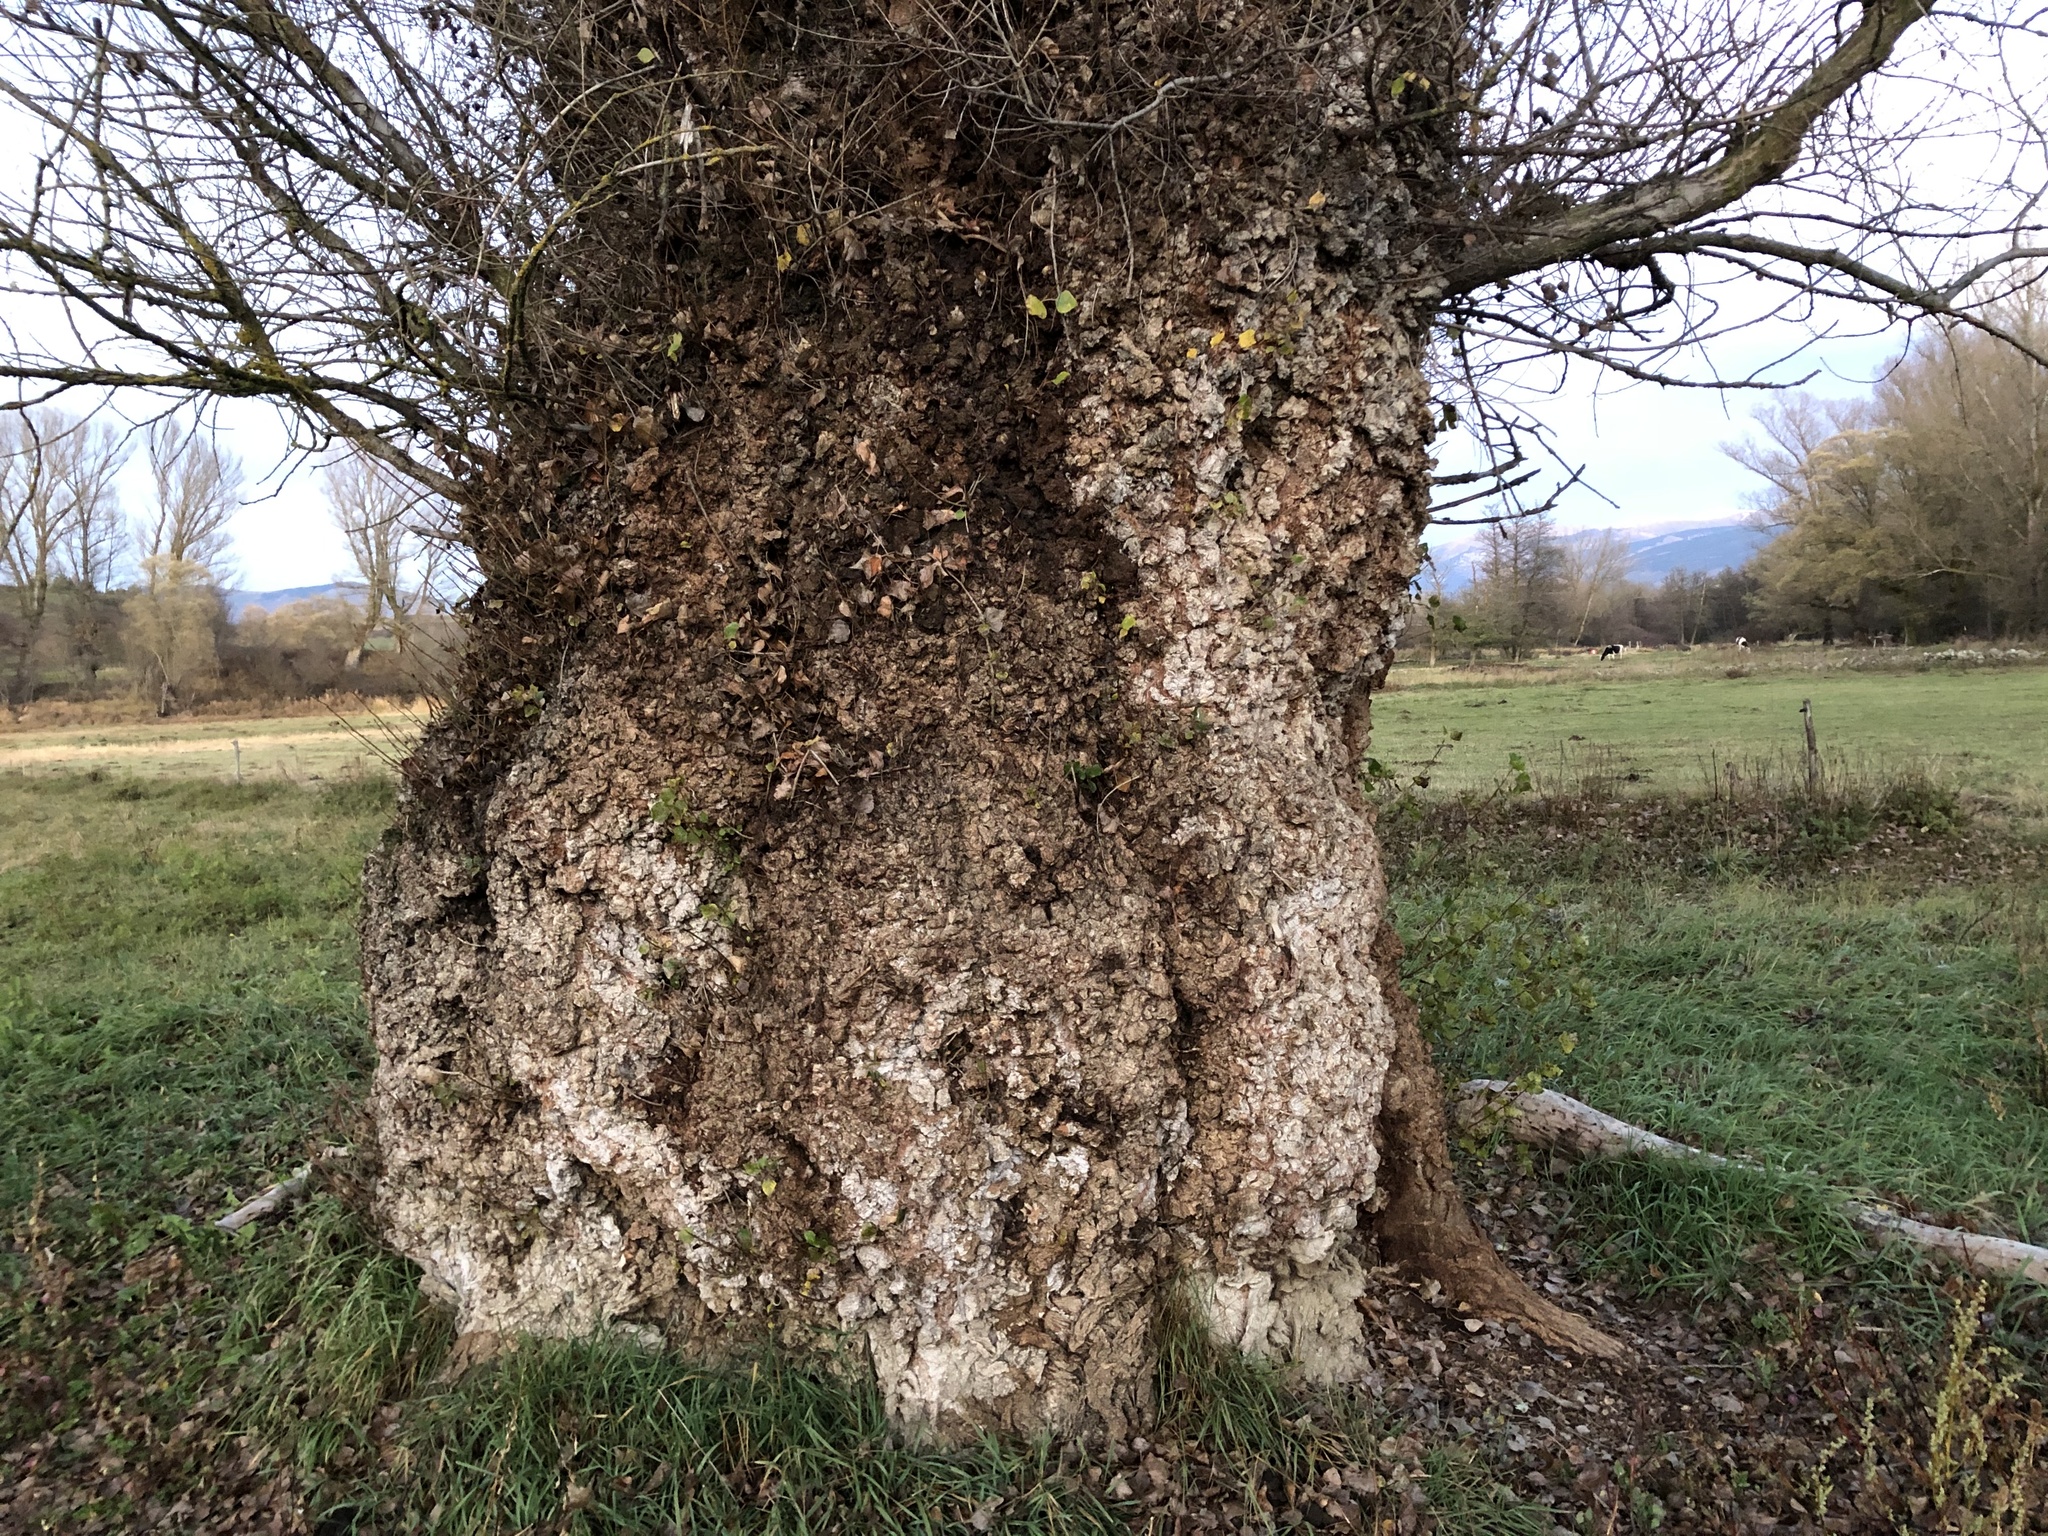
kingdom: Plantae
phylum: Tracheophyta
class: Magnoliopsida
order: Malpighiales
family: Salicaceae
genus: Populus
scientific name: Populus nigra
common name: Black poplar
